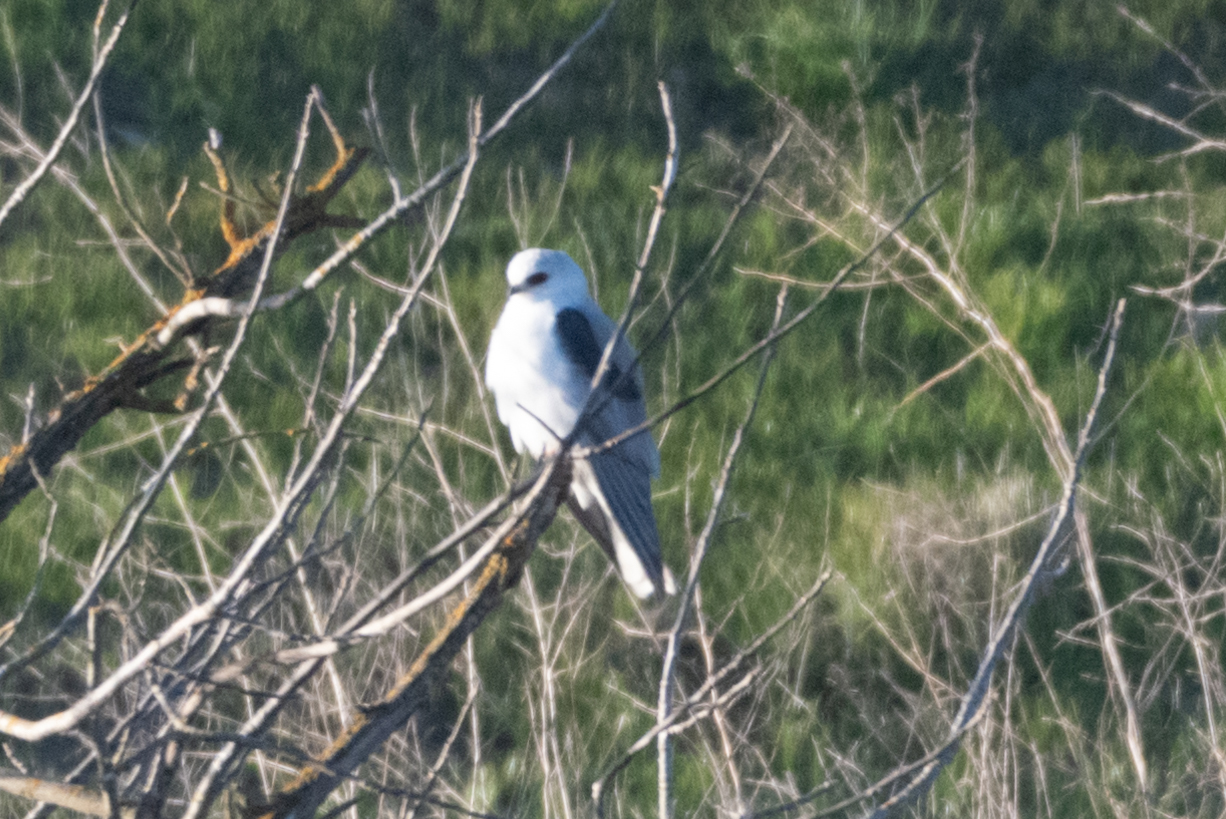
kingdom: Animalia
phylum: Chordata
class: Aves
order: Accipitriformes
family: Accipitridae
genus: Elanus
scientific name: Elanus leucurus
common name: White-tailed kite
